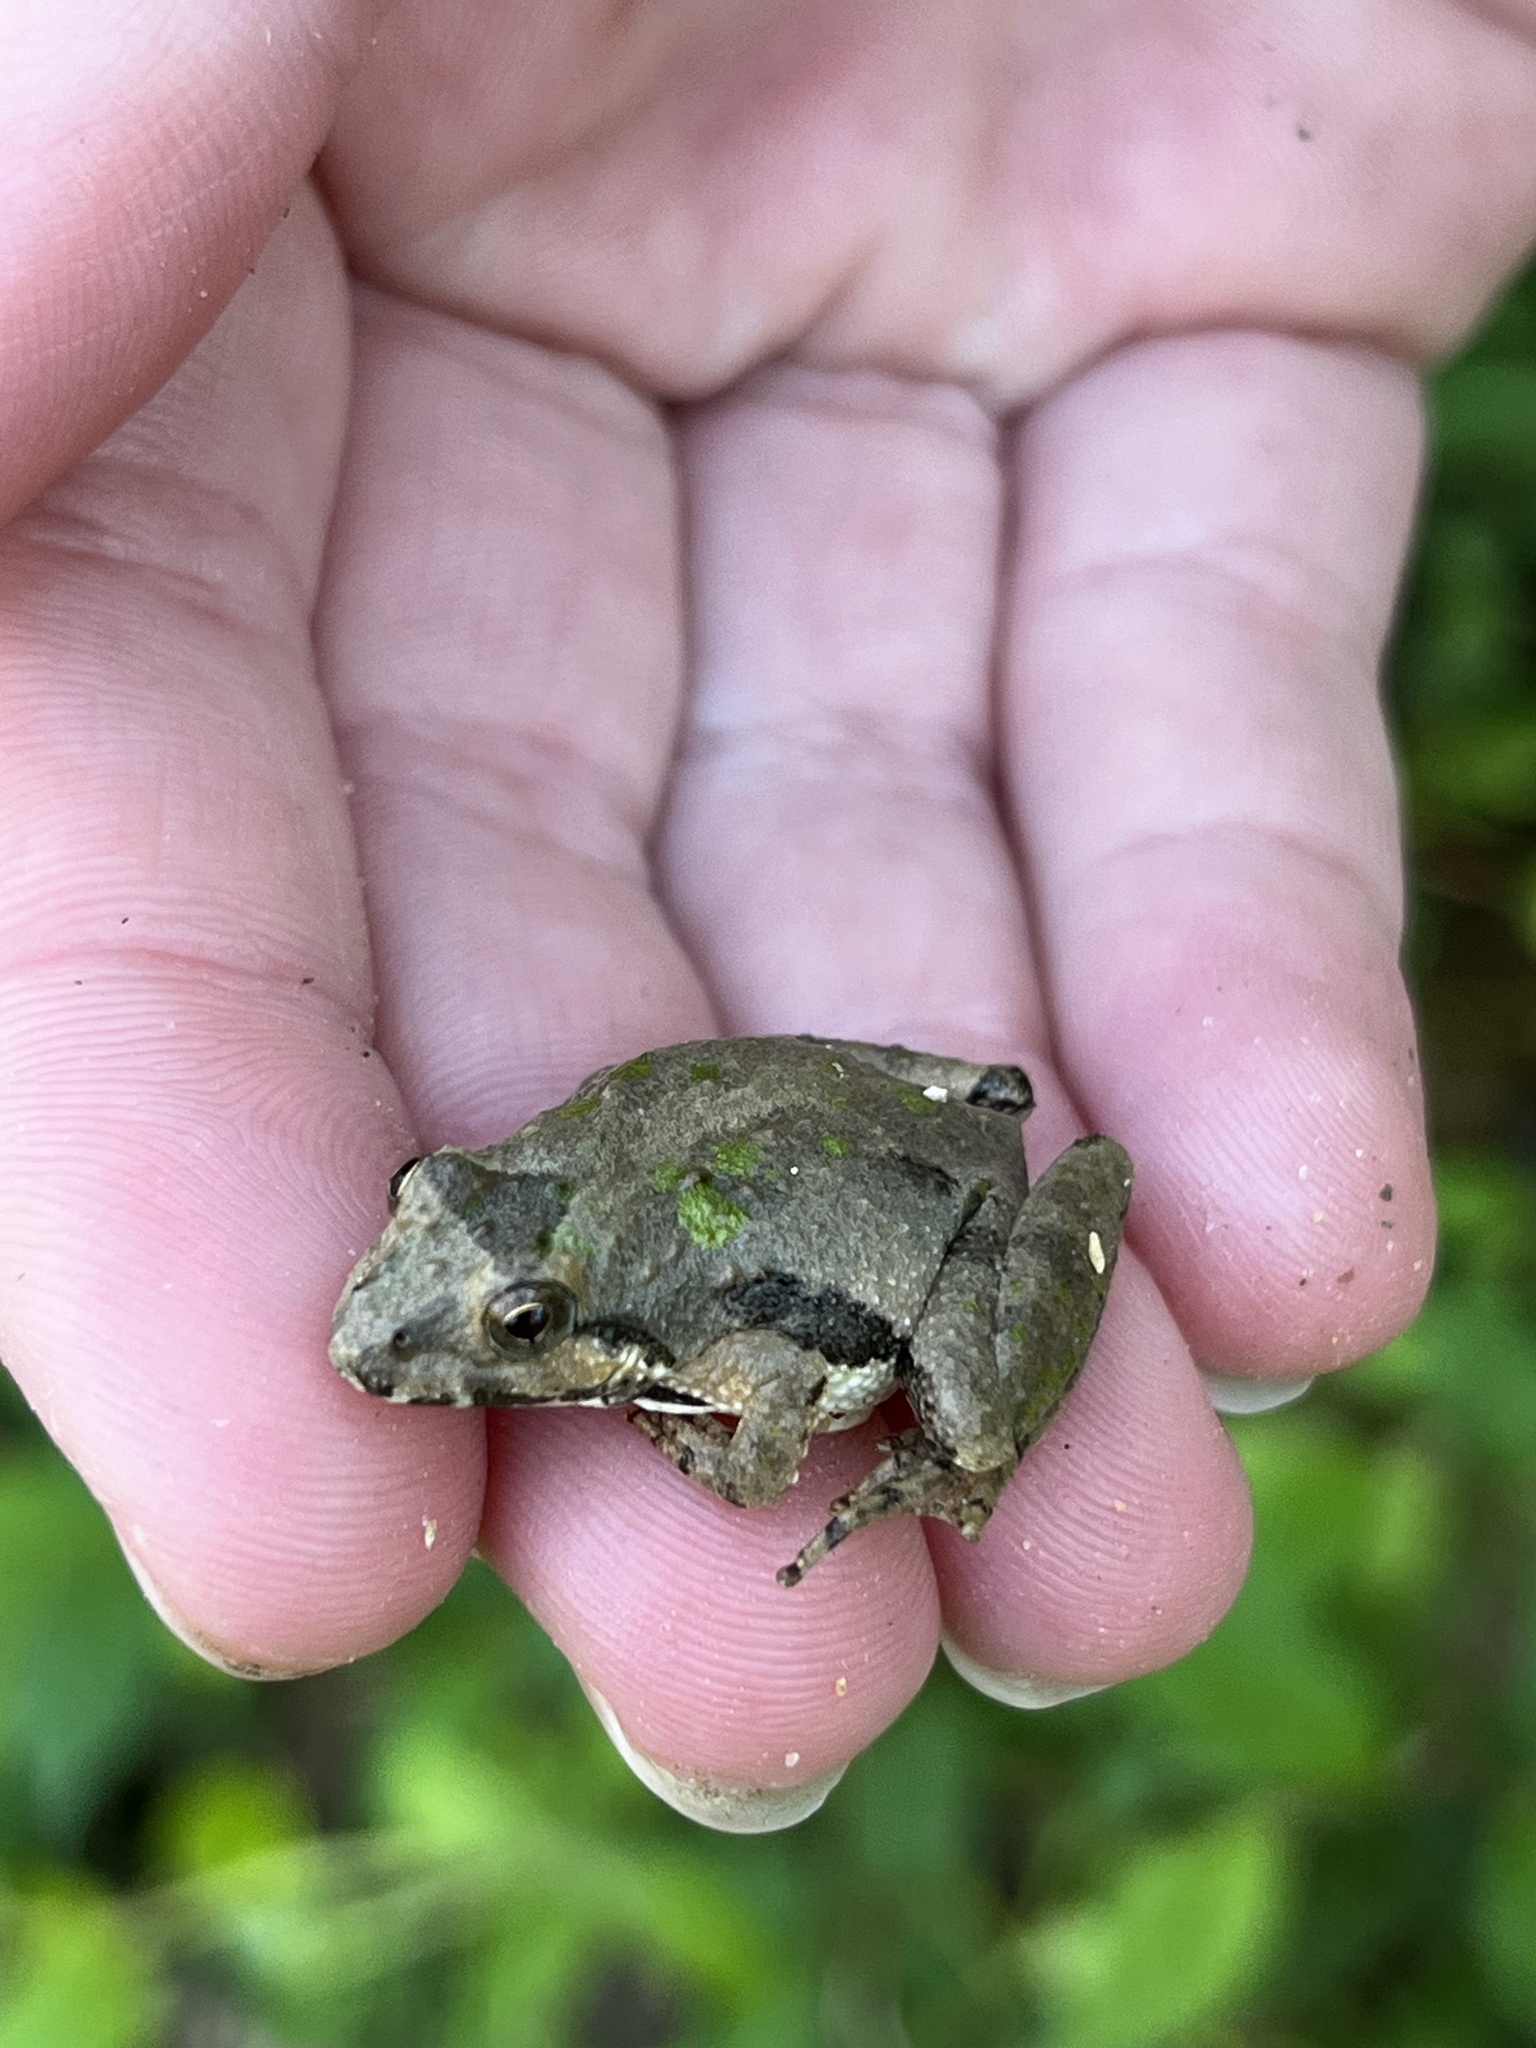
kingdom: Animalia
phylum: Chordata
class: Amphibia
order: Anura
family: Hylidae
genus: Acris
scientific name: Acris crepitans
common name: Northern cricket frog
